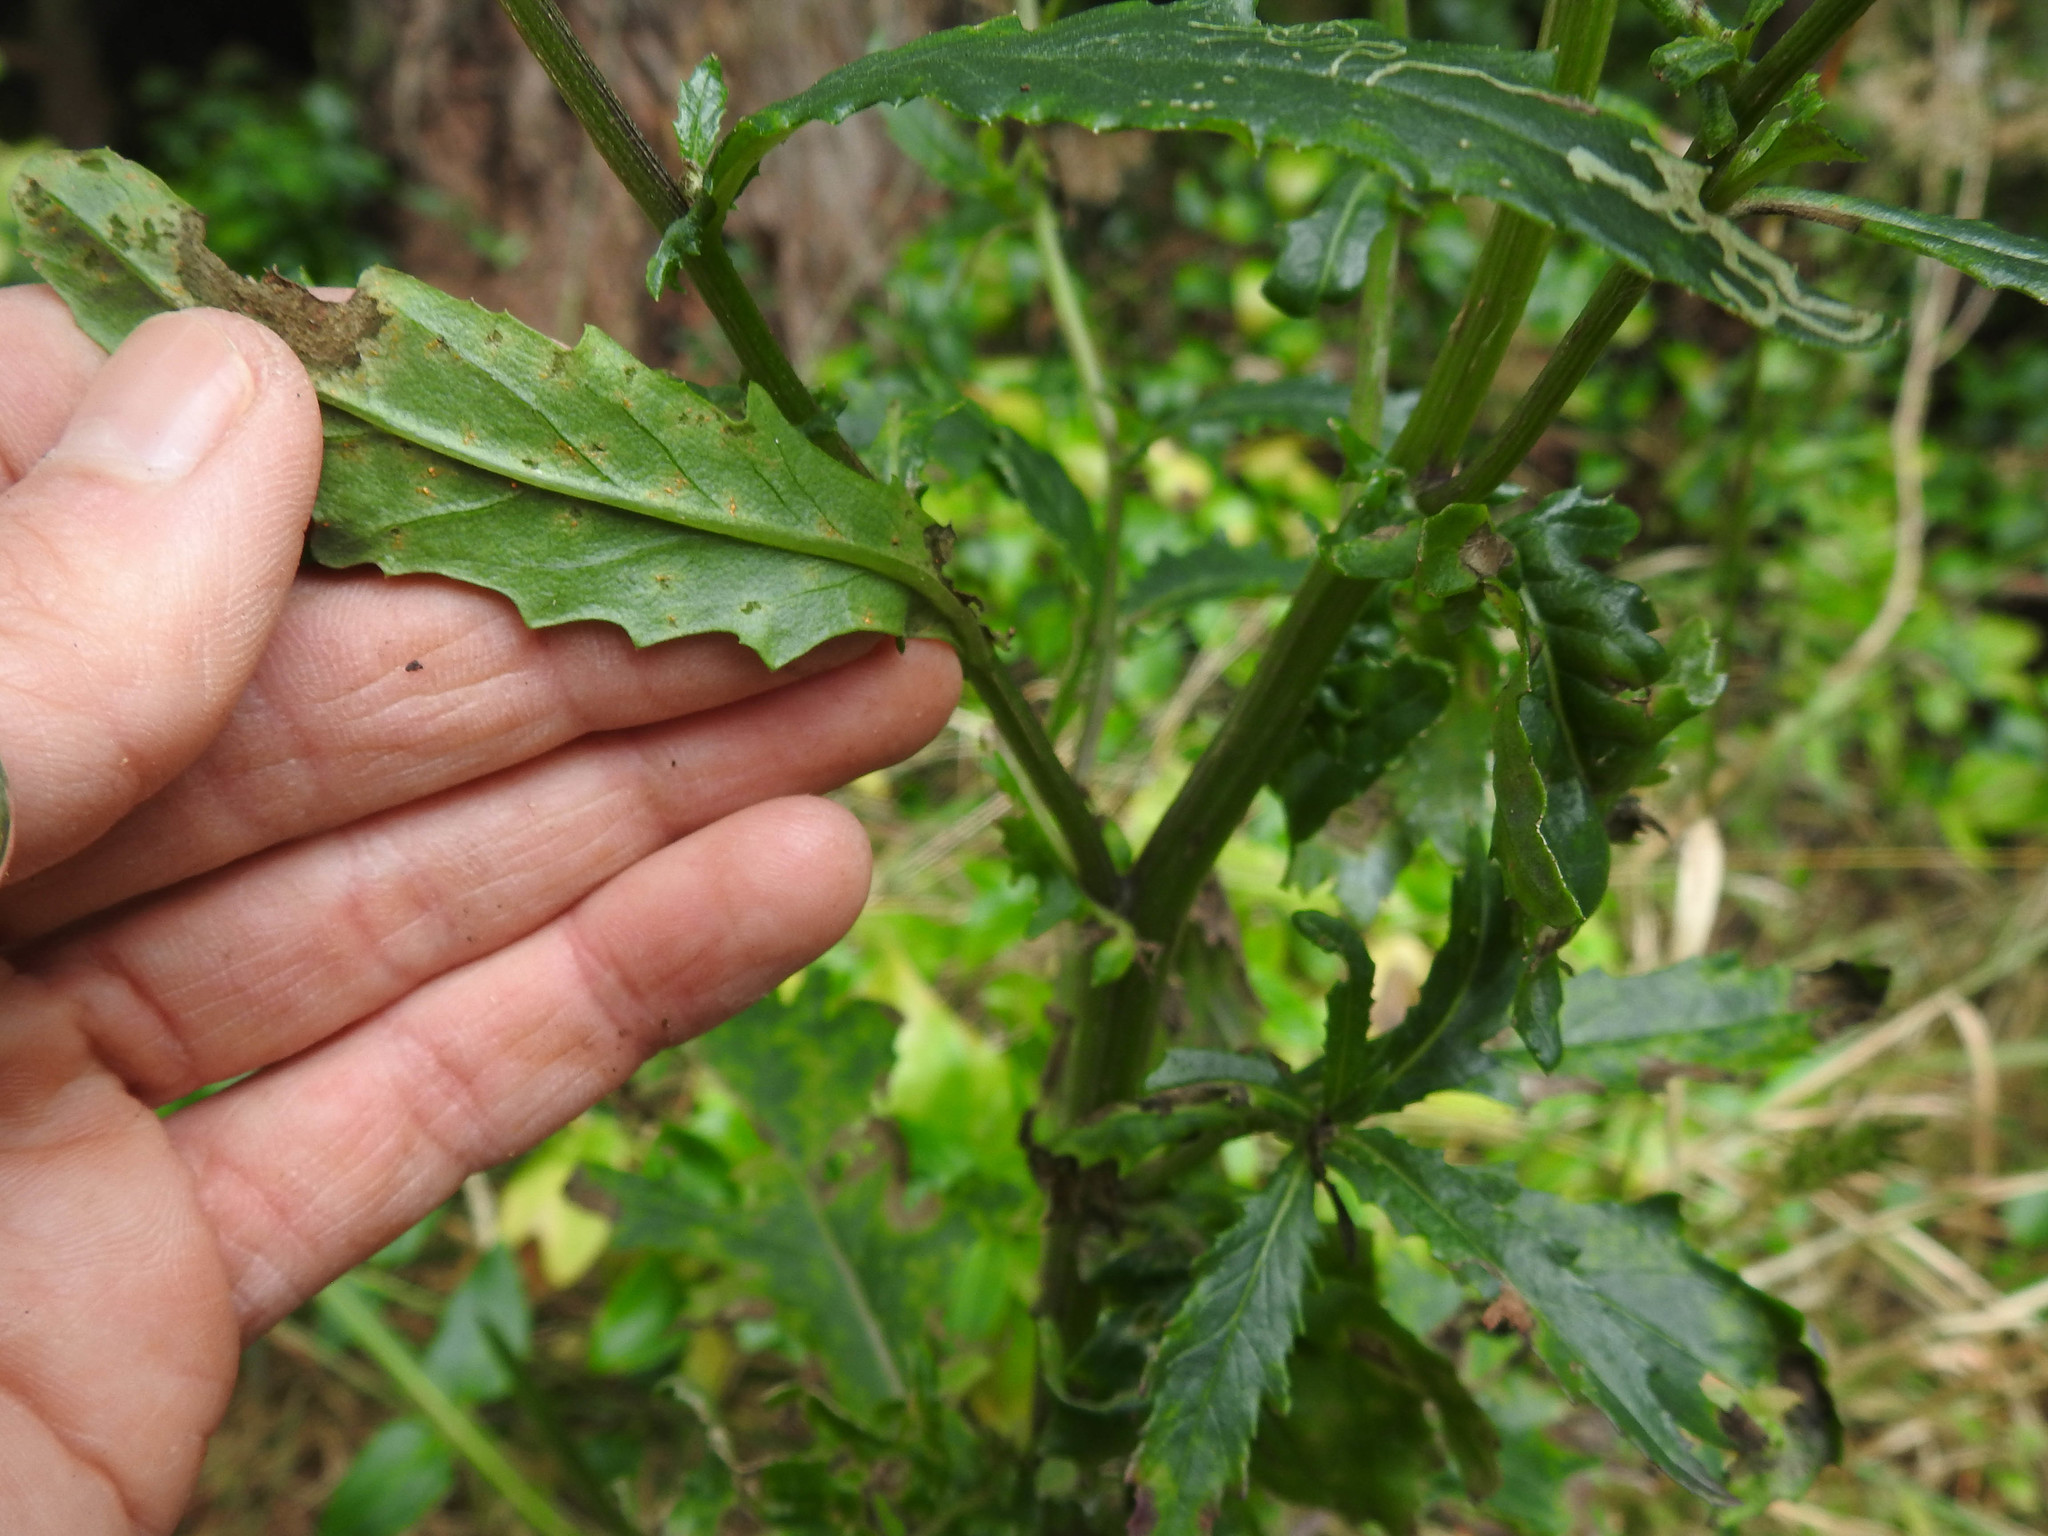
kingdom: Plantae
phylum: Tracheophyta
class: Magnoliopsida
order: Asterales
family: Asteraceae
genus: Senecio
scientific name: Senecio minimus
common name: Toothed fireweed
